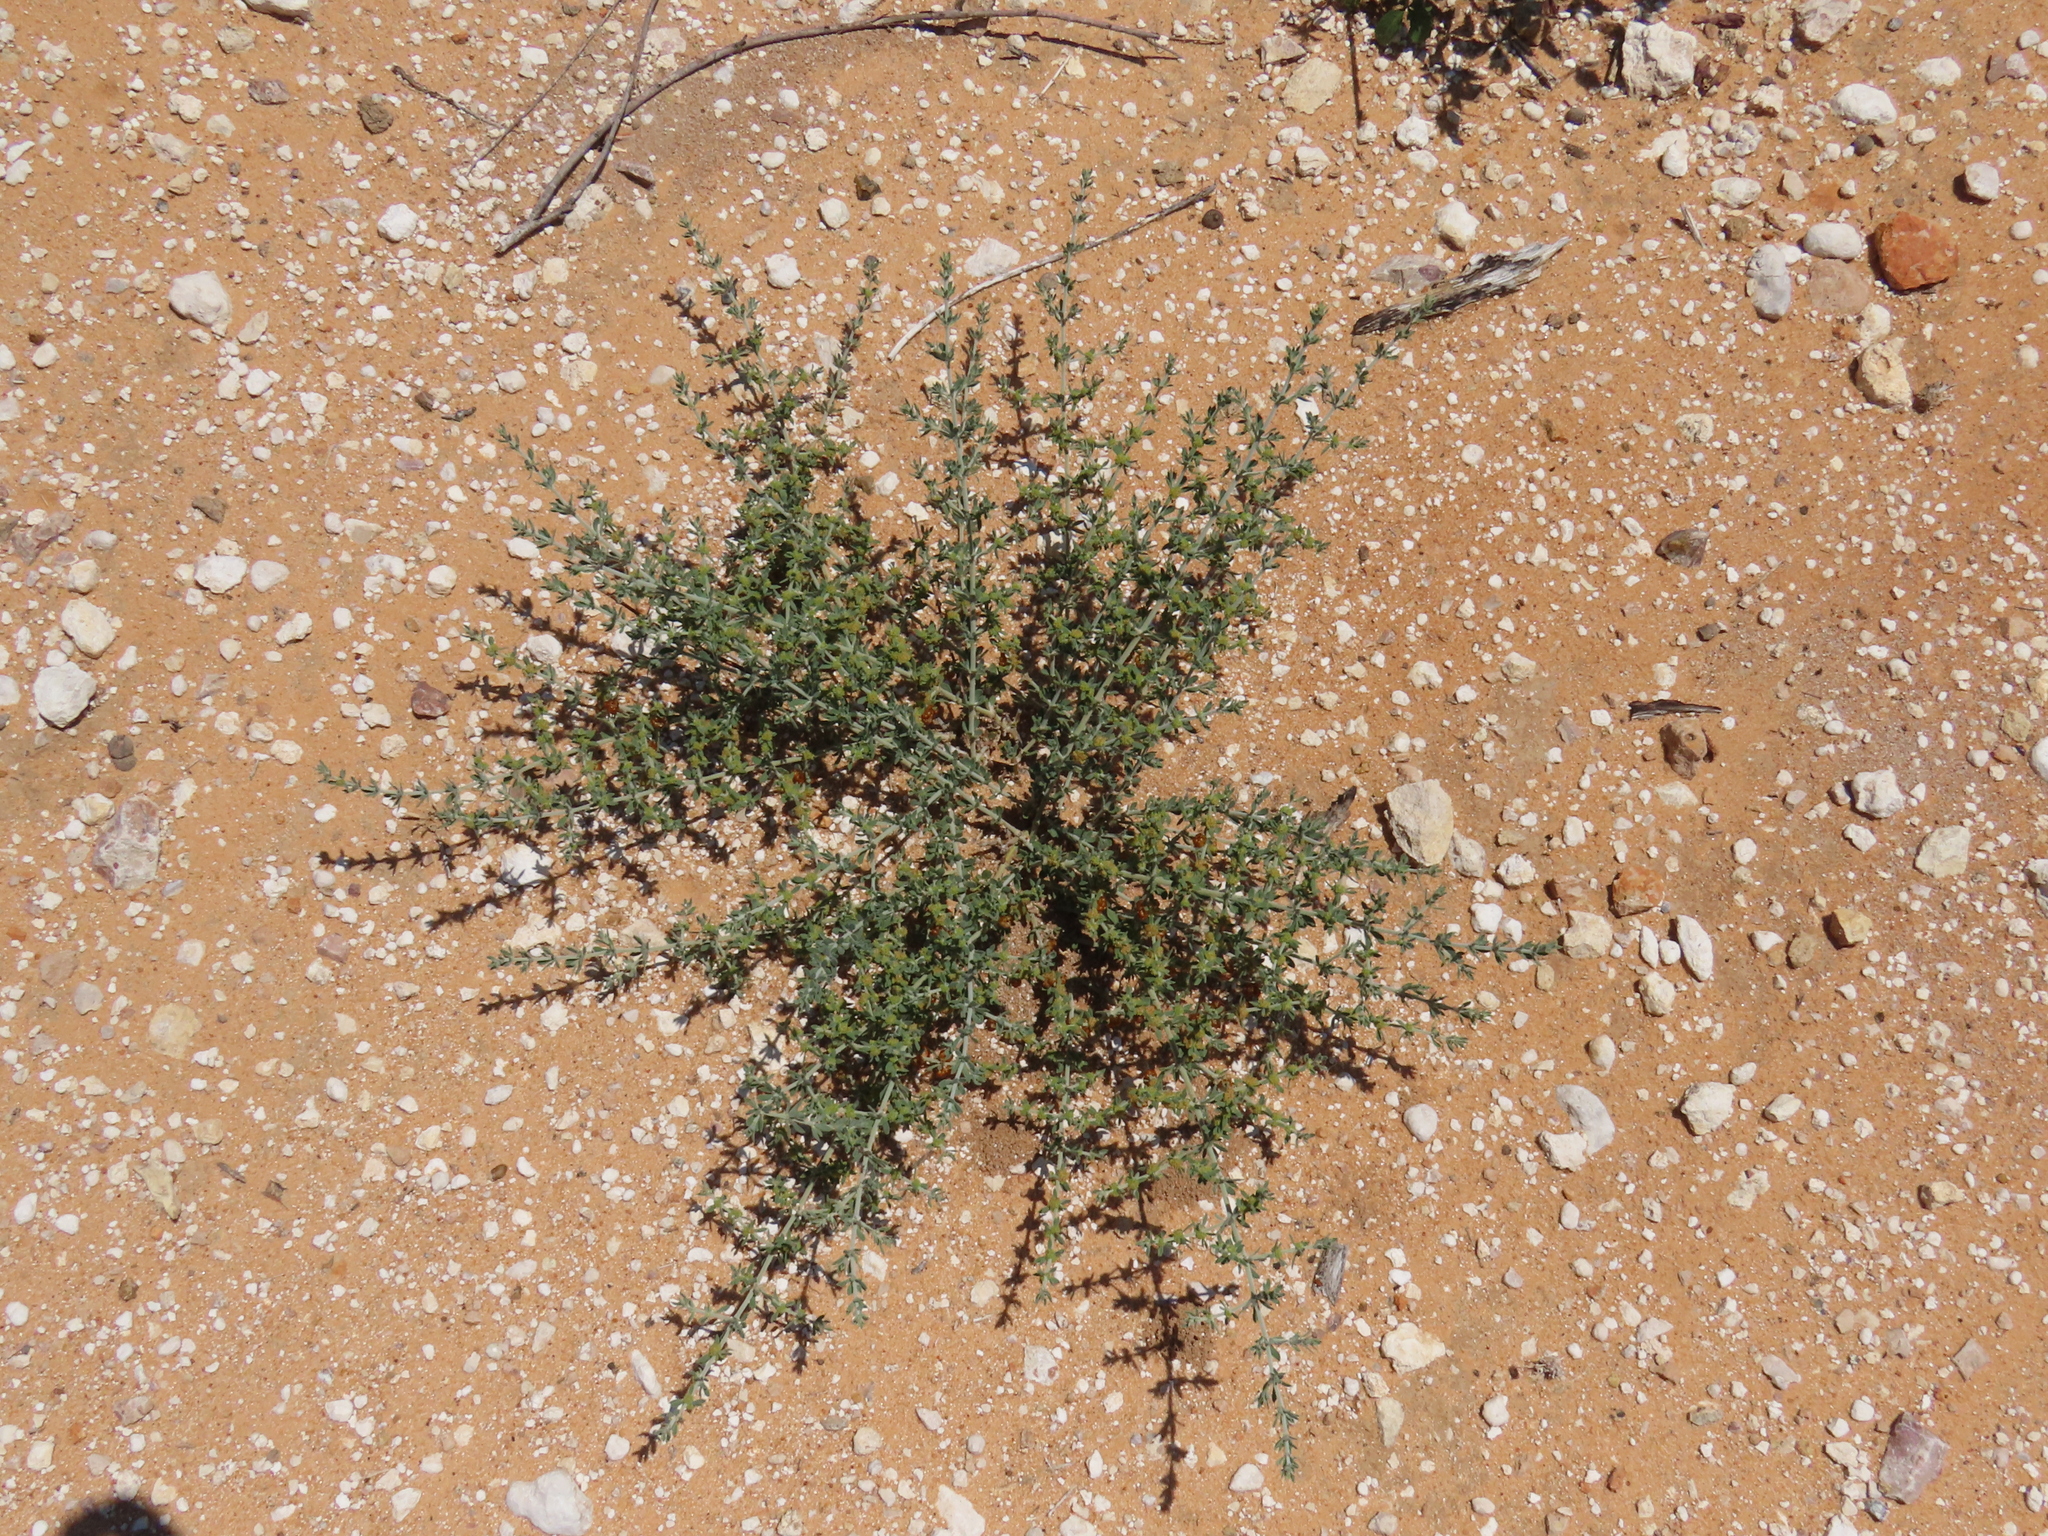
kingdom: Plantae
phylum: Tracheophyta
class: Magnoliopsida
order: Caryophyllales
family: Caryophyllaceae
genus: Pollichia
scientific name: Pollichia campestris
